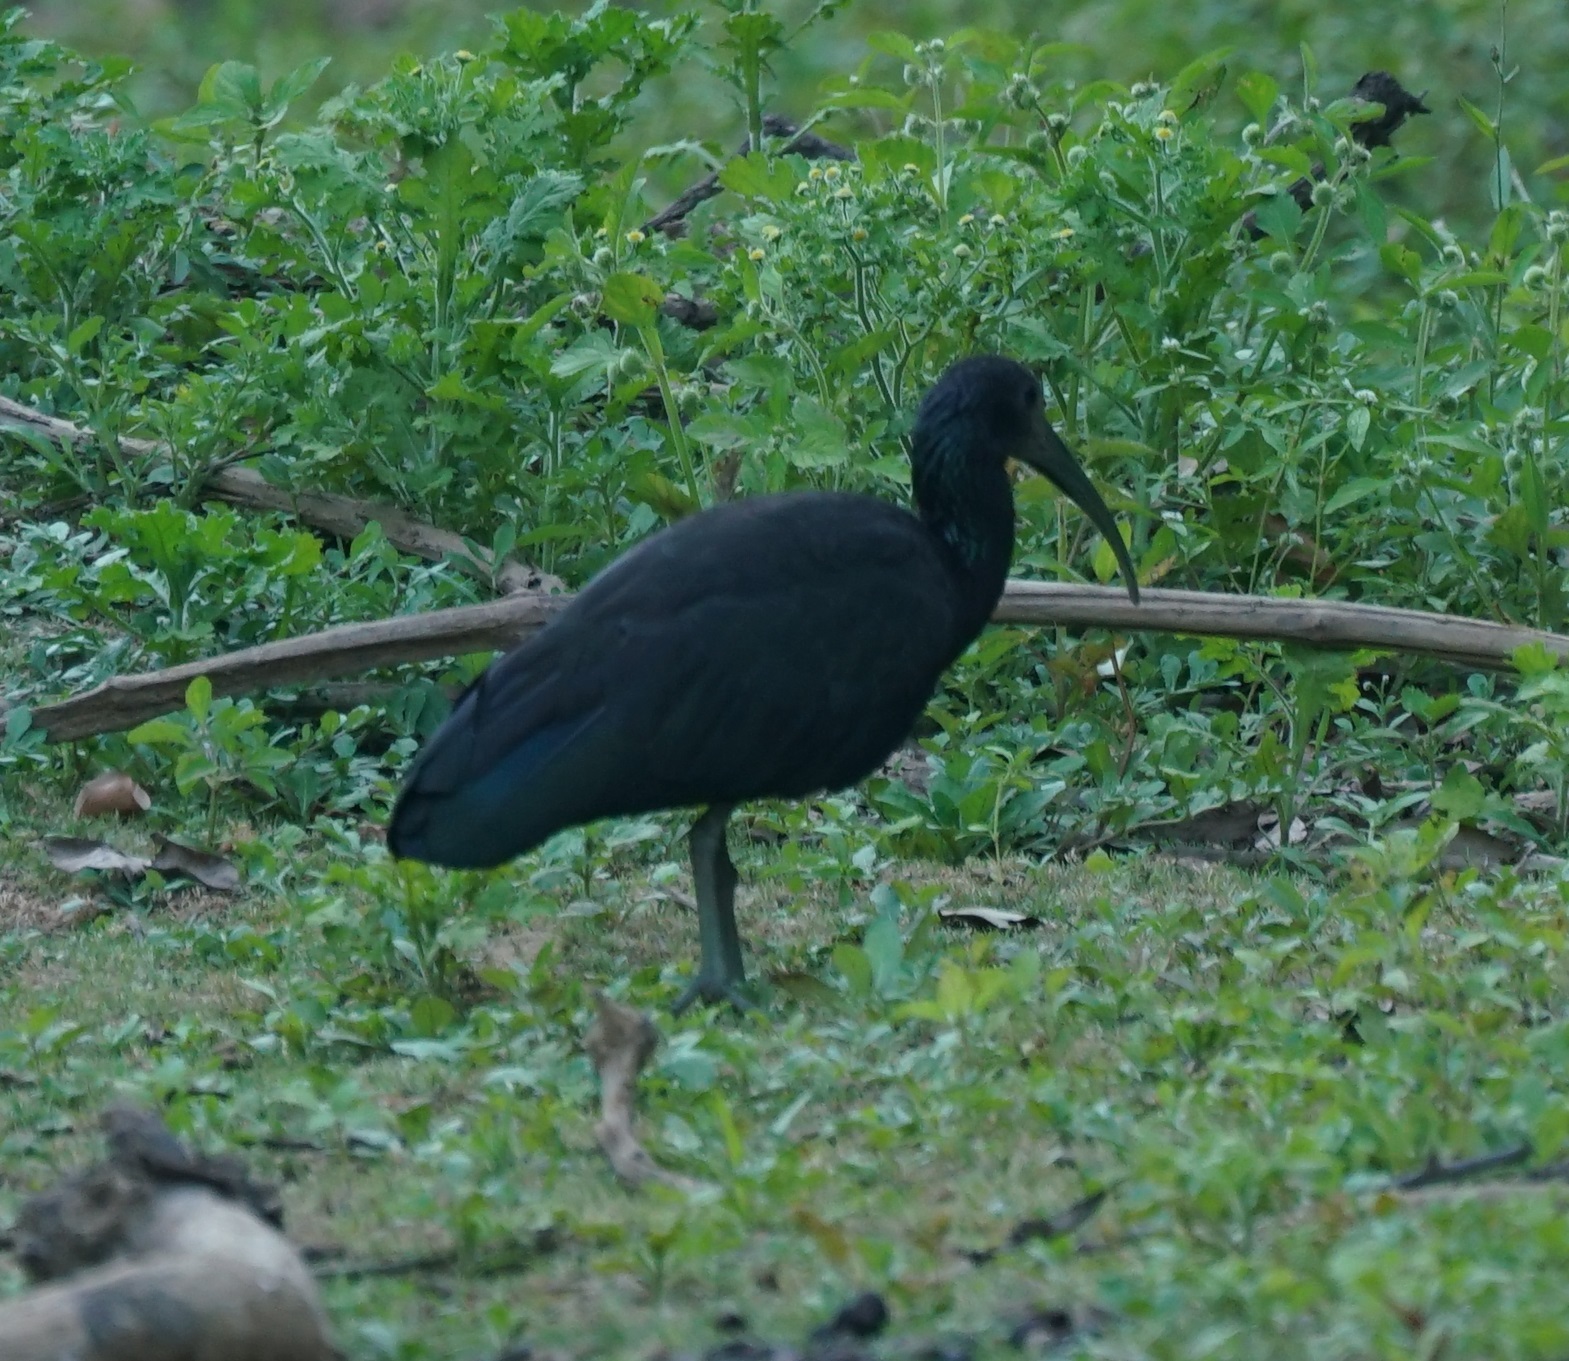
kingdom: Animalia
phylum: Chordata
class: Aves
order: Pelecaniformes
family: Threskiornithidae
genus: Mesembrinibis
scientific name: Mesembrinibis cayennensis
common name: Green ibis
